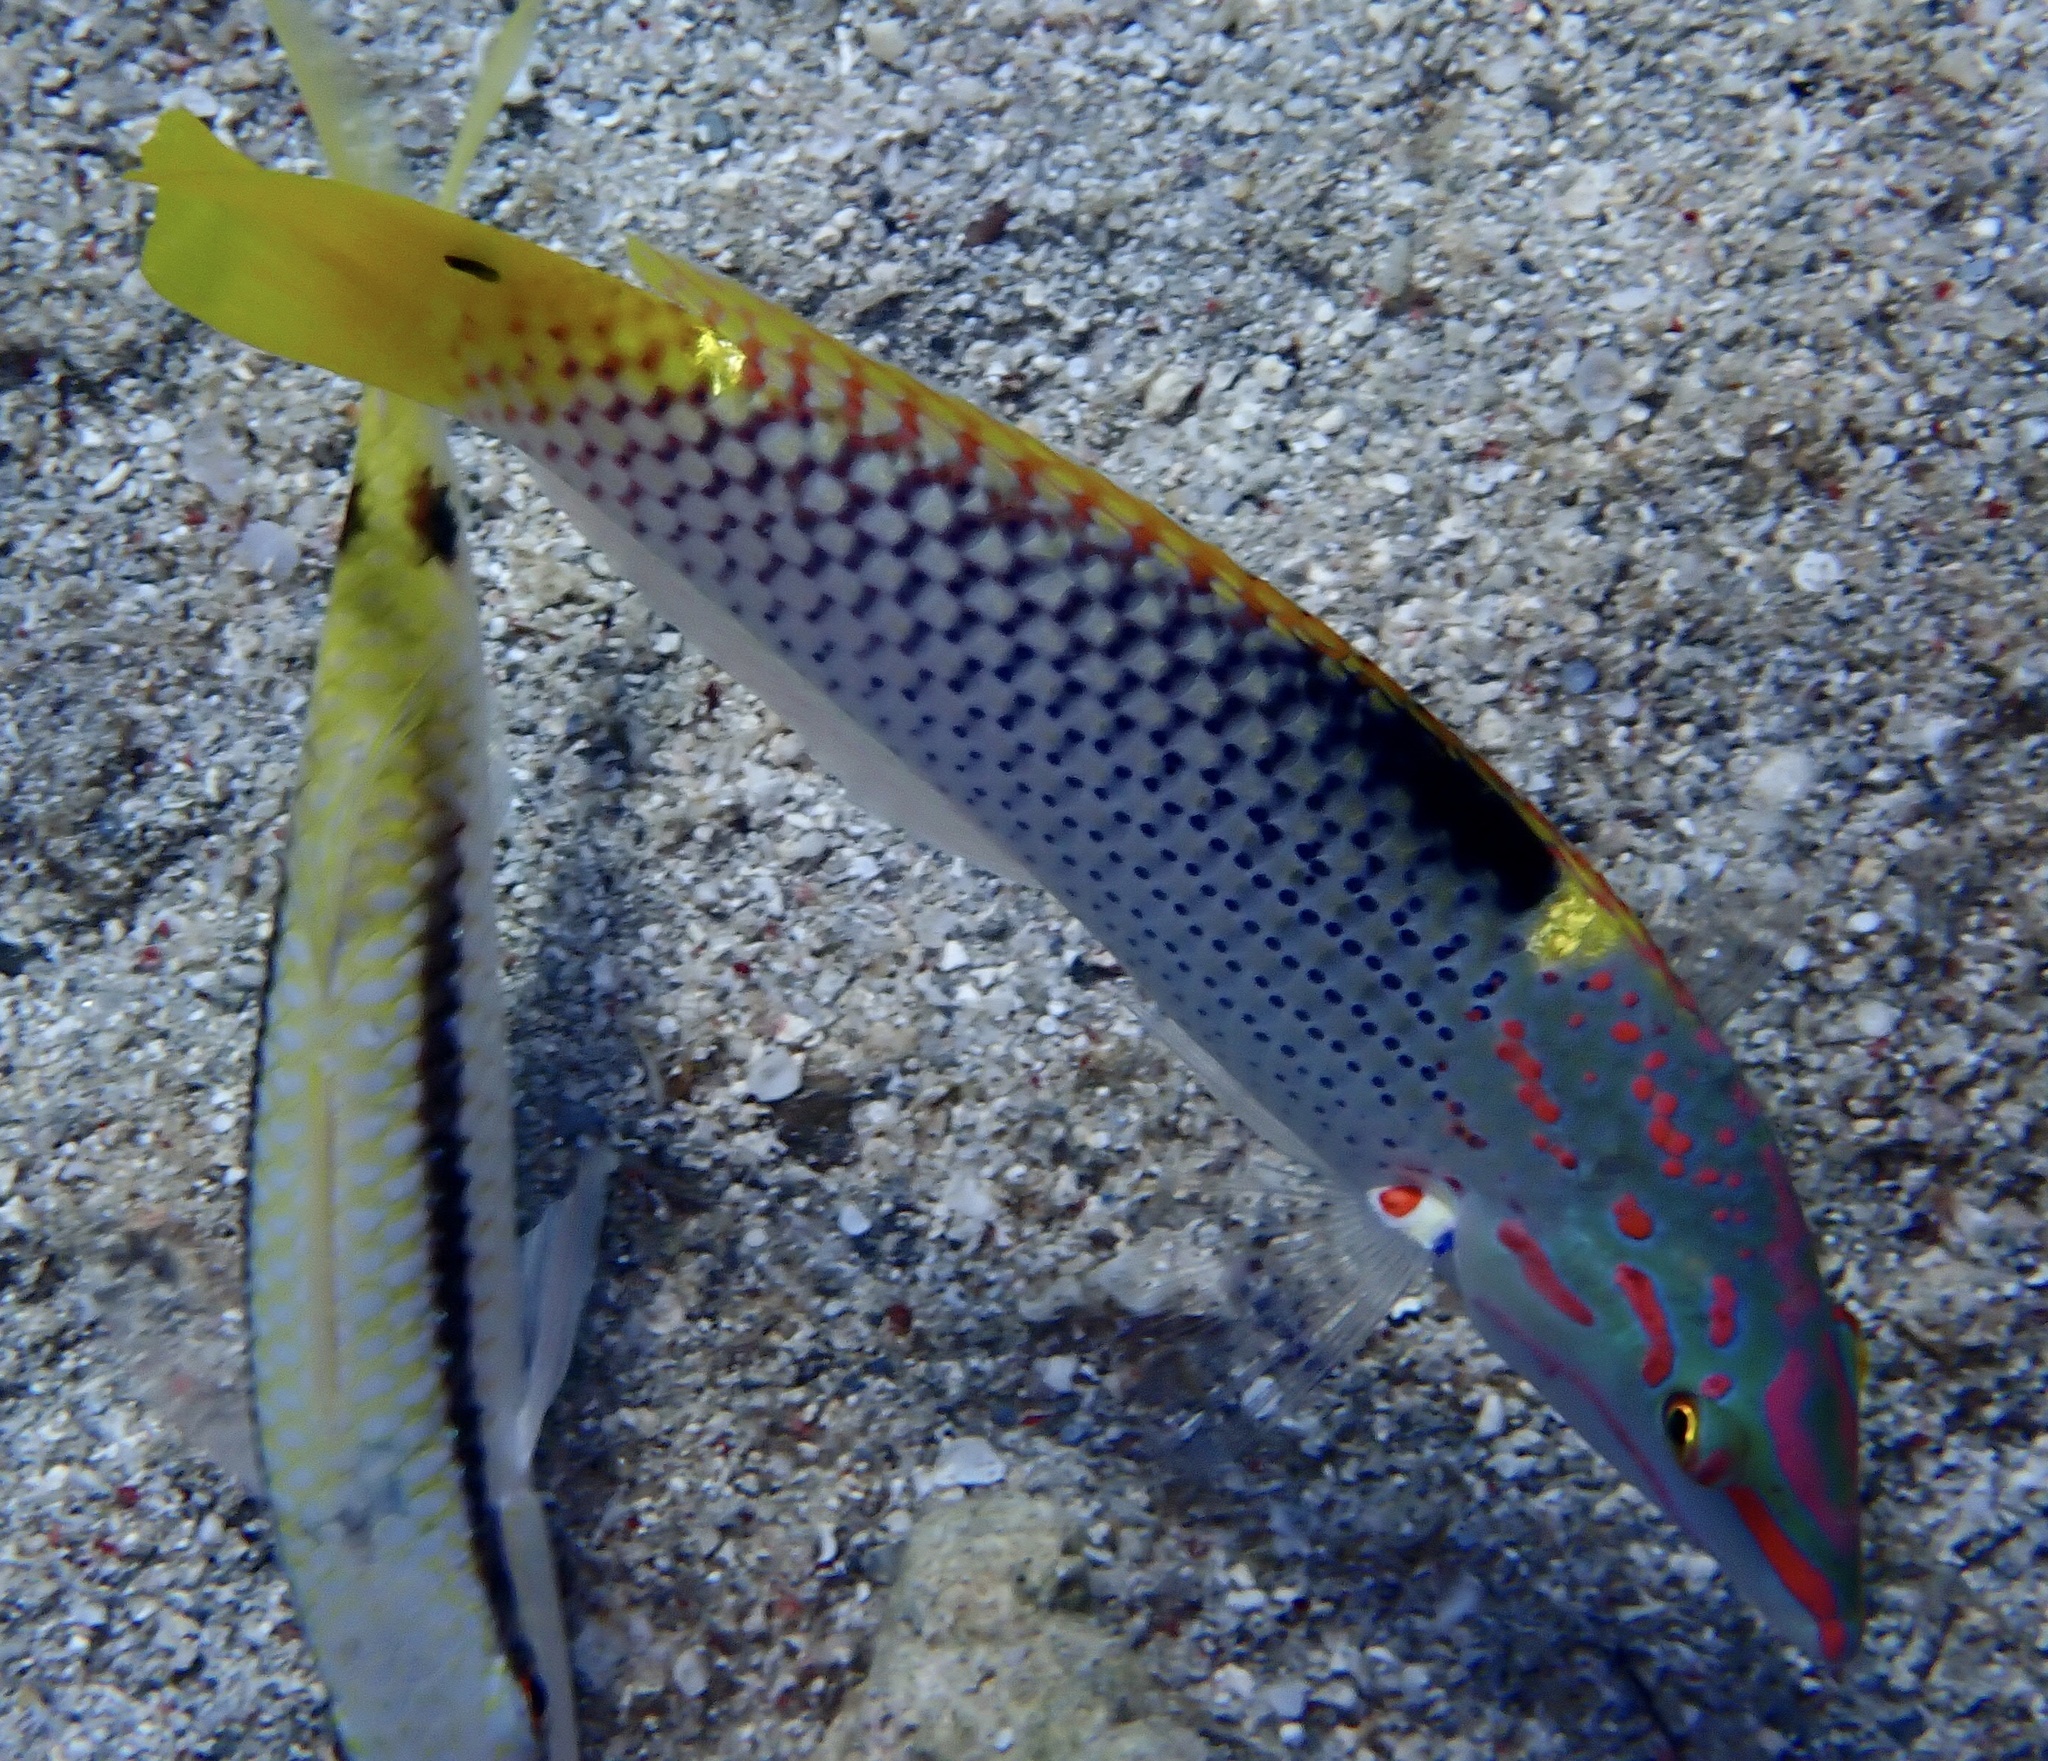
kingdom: Animalia
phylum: Chordata
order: Perciformes
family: Labridae
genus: Halichoeres
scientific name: Halichoeres hortulanus
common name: Checkerboard wrasse
